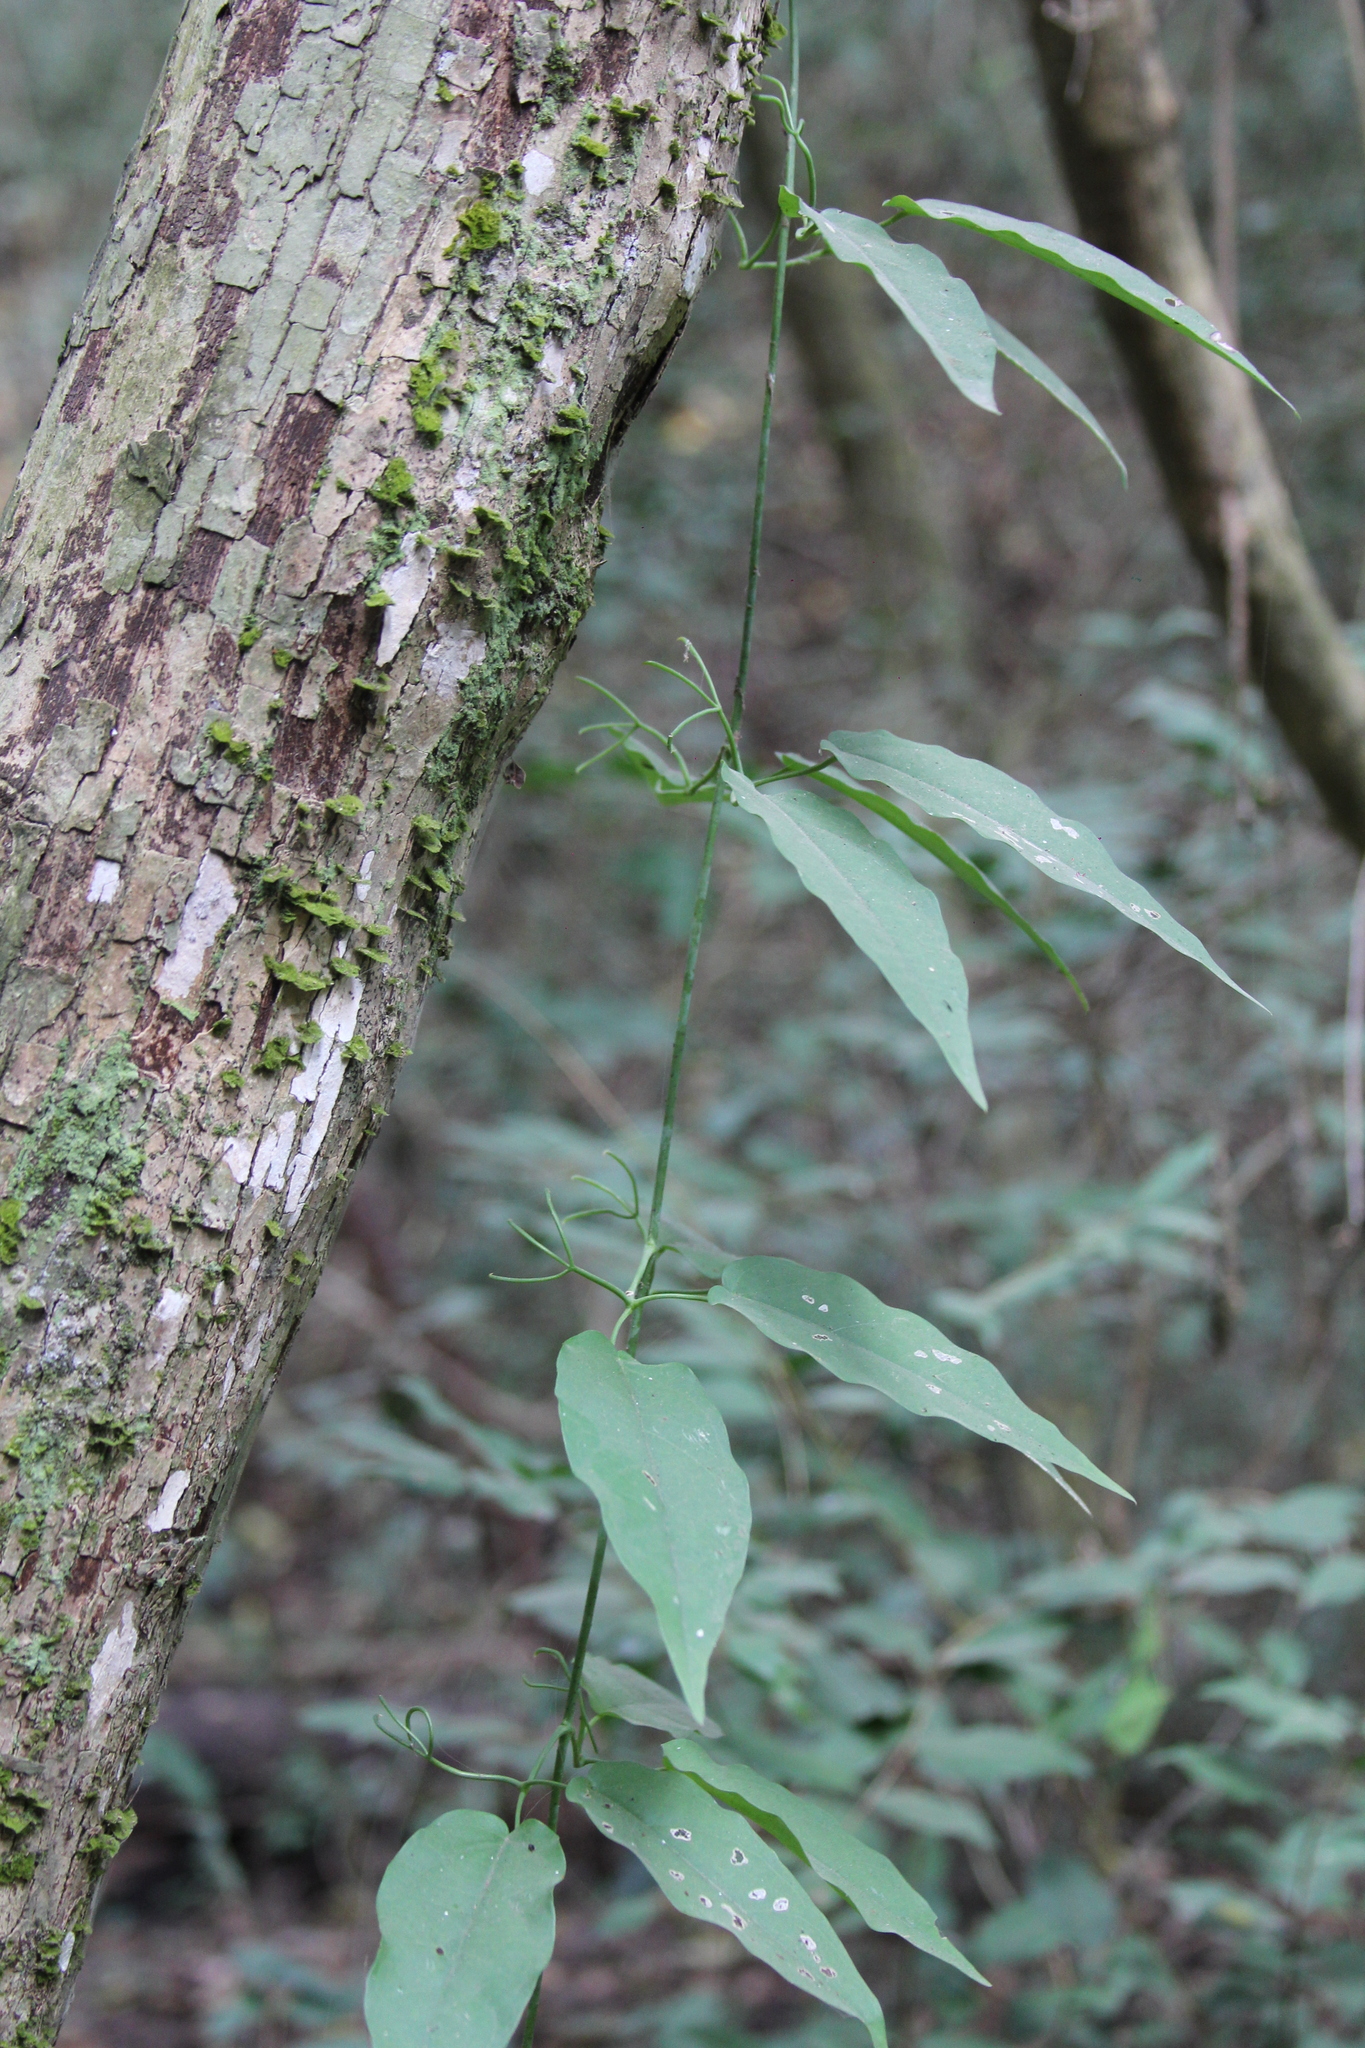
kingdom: Plantae
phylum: Tracheophyta
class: Magnoliopsida
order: Lamiales
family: Bignoniaceae
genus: Dolichandra
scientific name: Dolichandra unguis-cati
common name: Catclaw vine
